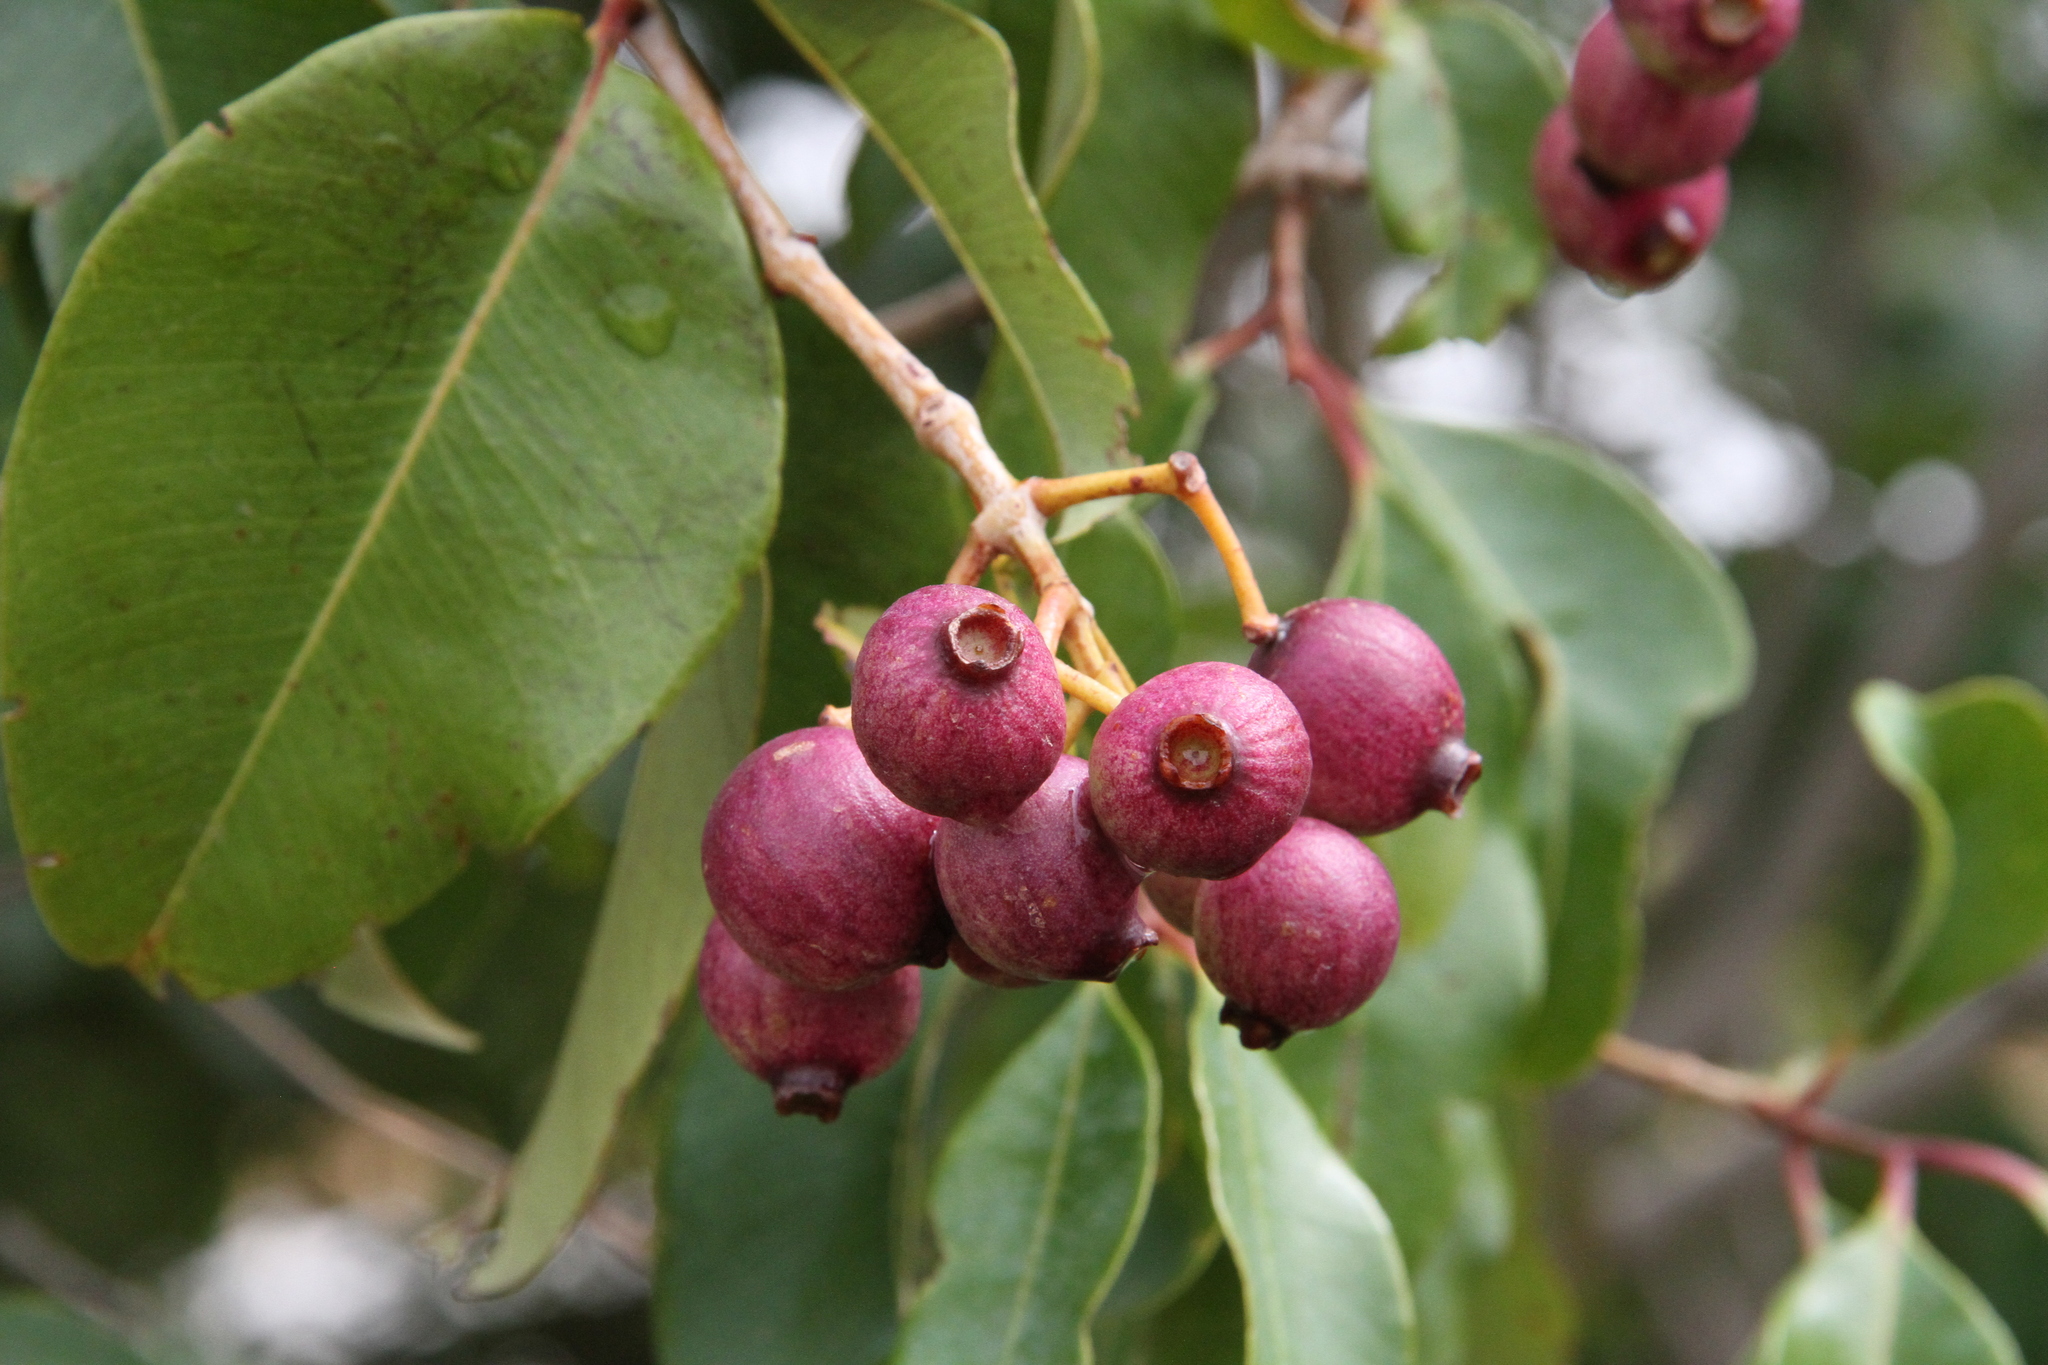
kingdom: Plantae
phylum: Tracheophyta
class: Magnoliopsida
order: Myrtales
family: Myrtaceae
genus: Syzygium
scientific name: Syzygium guineense
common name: Water-pear
